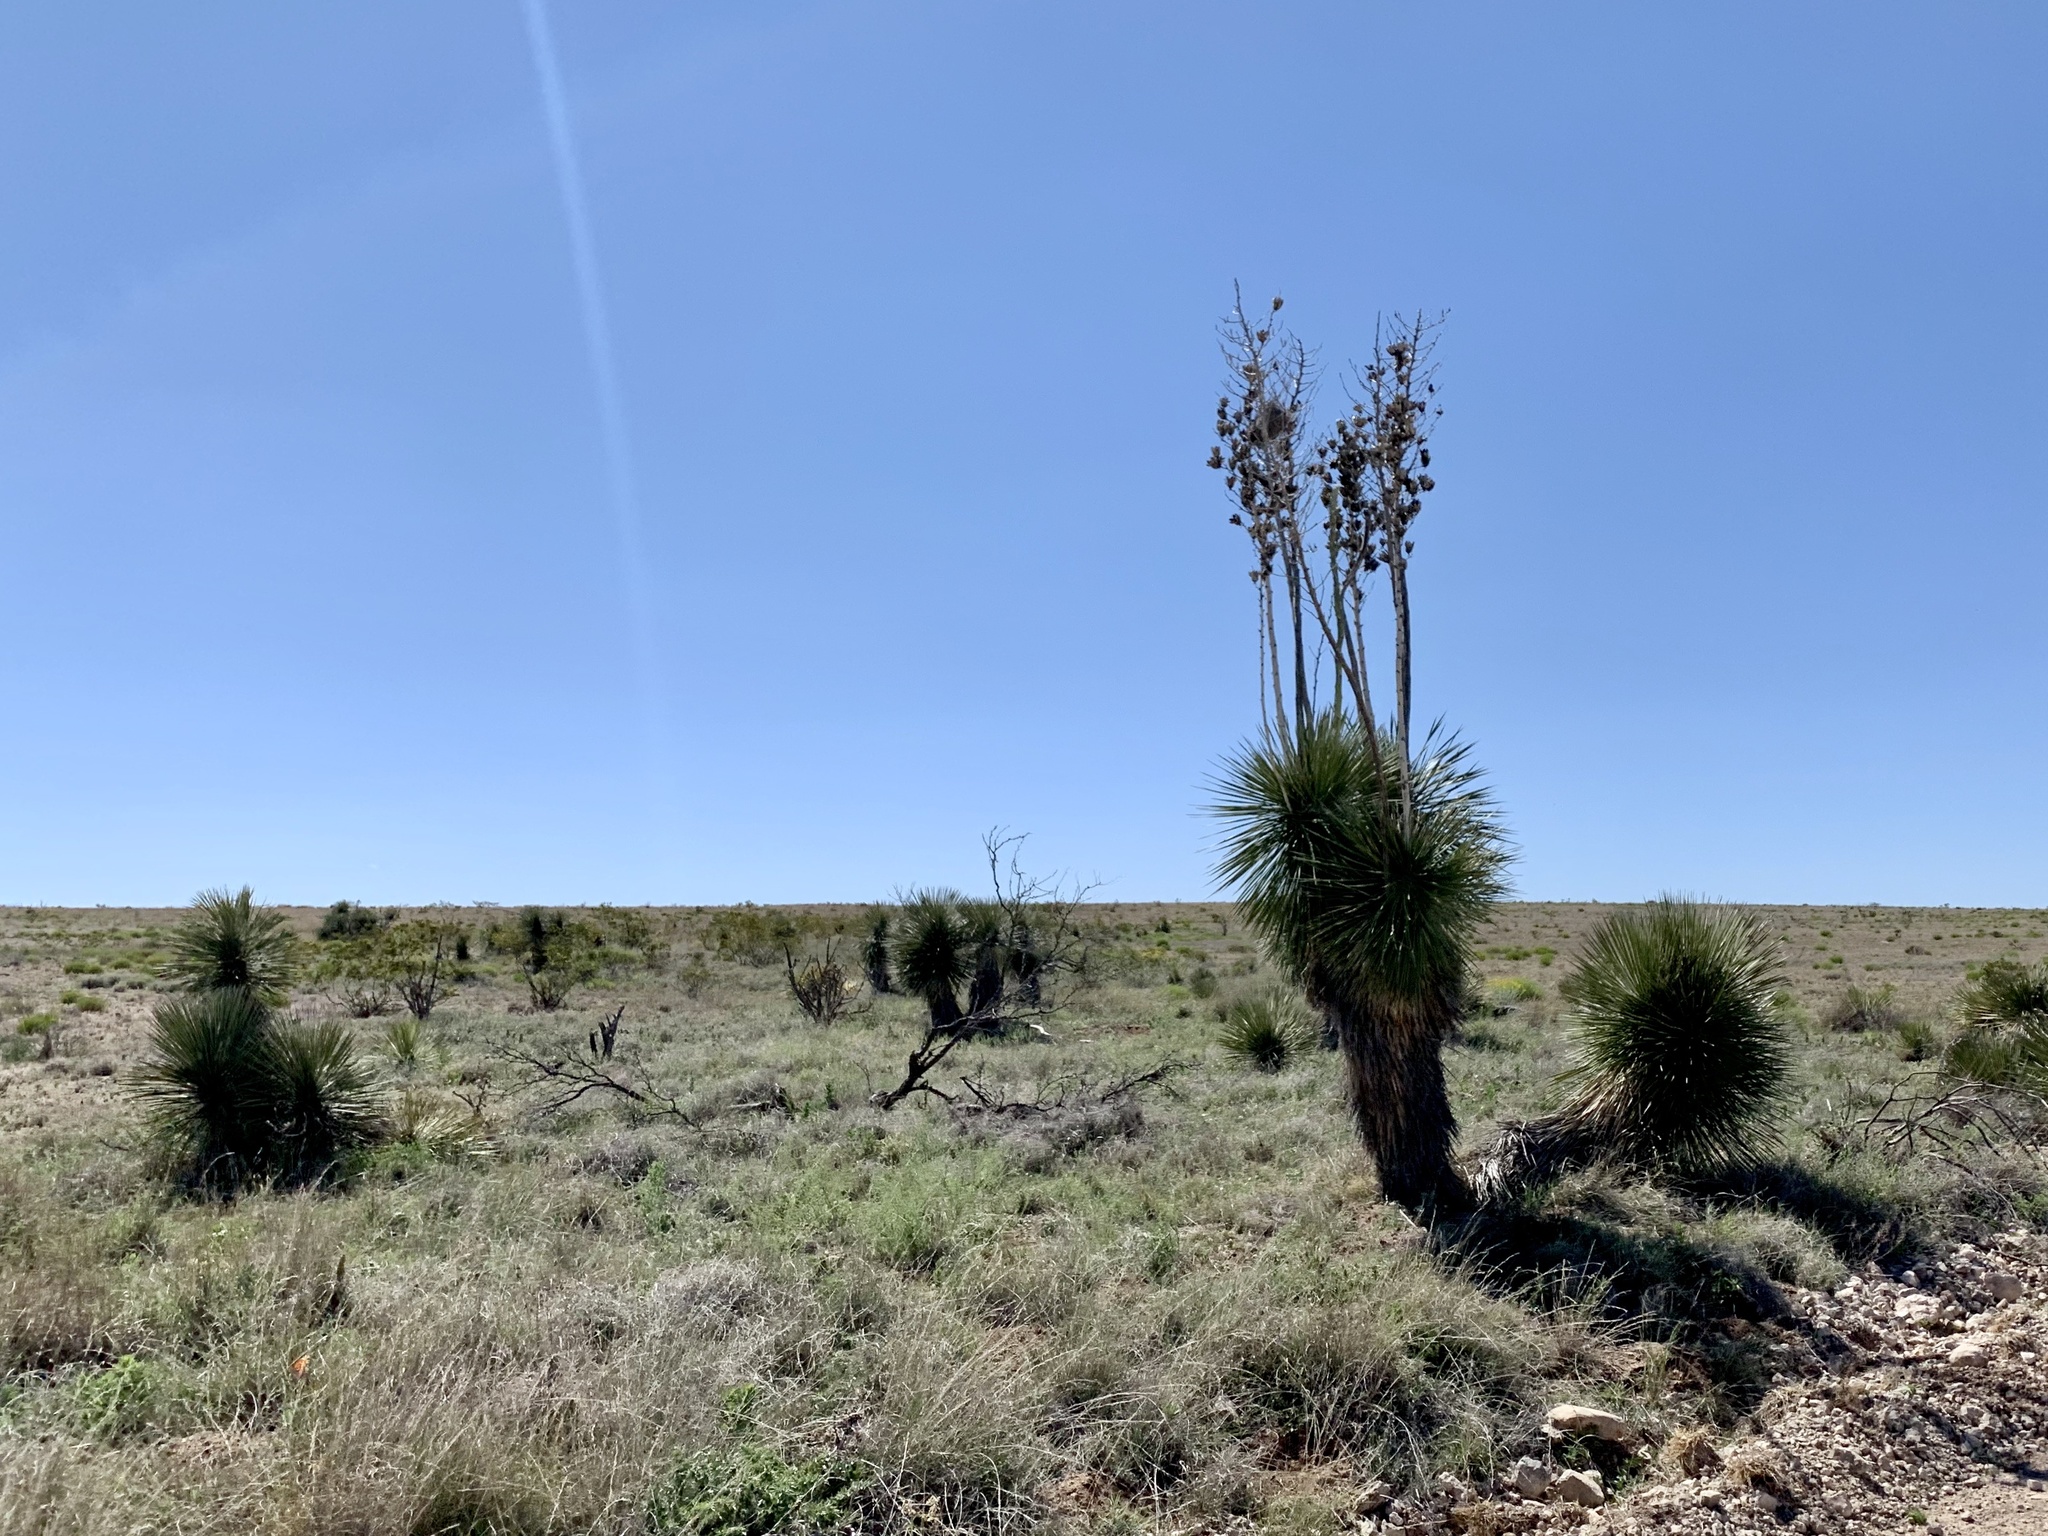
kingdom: Plantae
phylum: Tracheophyta
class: Liliopsida
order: Asparagales
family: Asparagaceae
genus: Yucca
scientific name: Yucca elata
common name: Palmella
